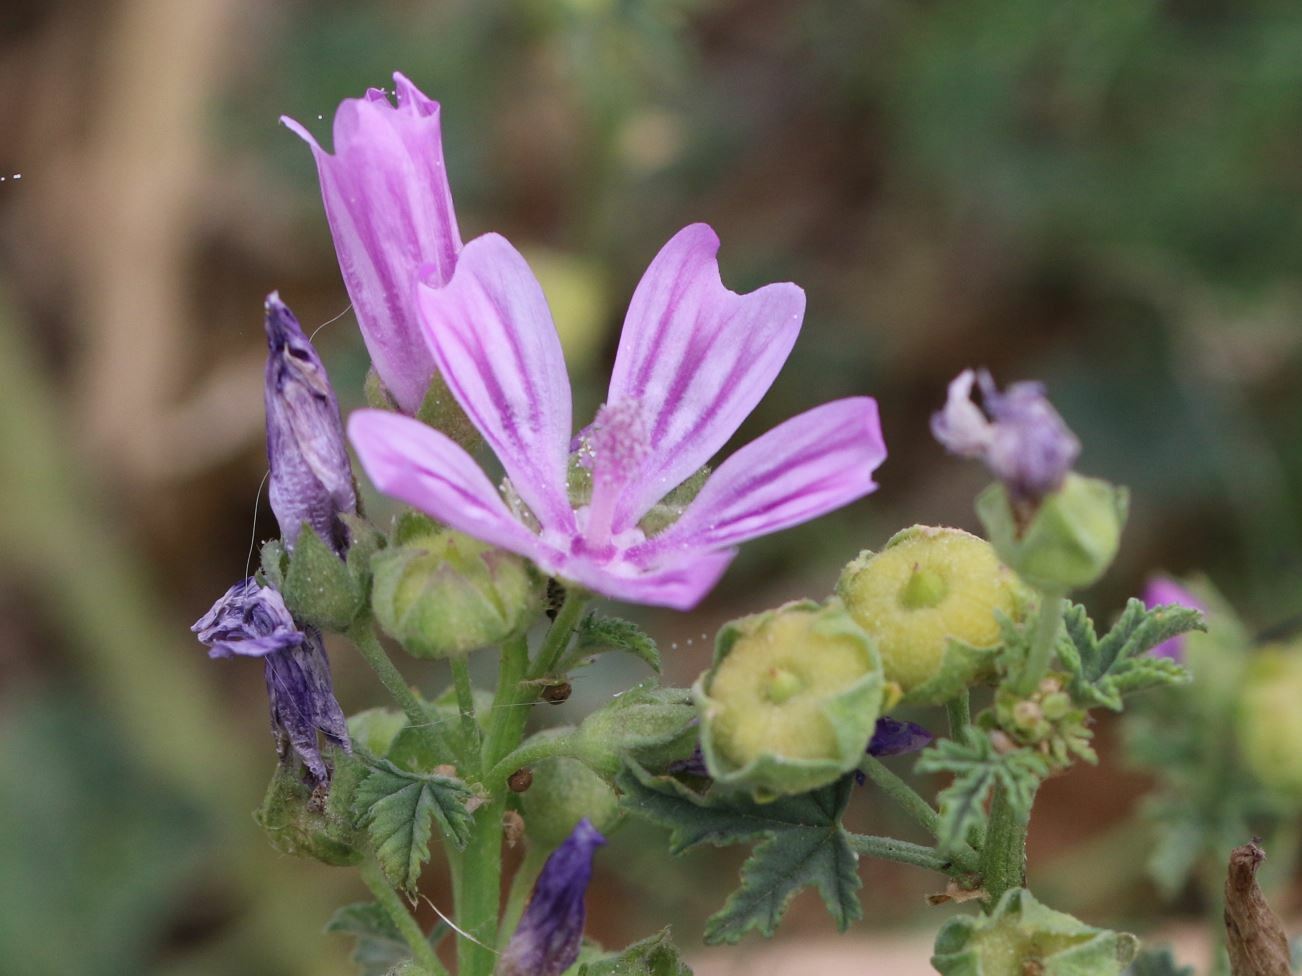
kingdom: Plantae
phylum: Tracheophyta
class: Magnoliopsida
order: Malvales
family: Malvaceae
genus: Malva
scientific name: Malva sylvestris
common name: Common mallow
